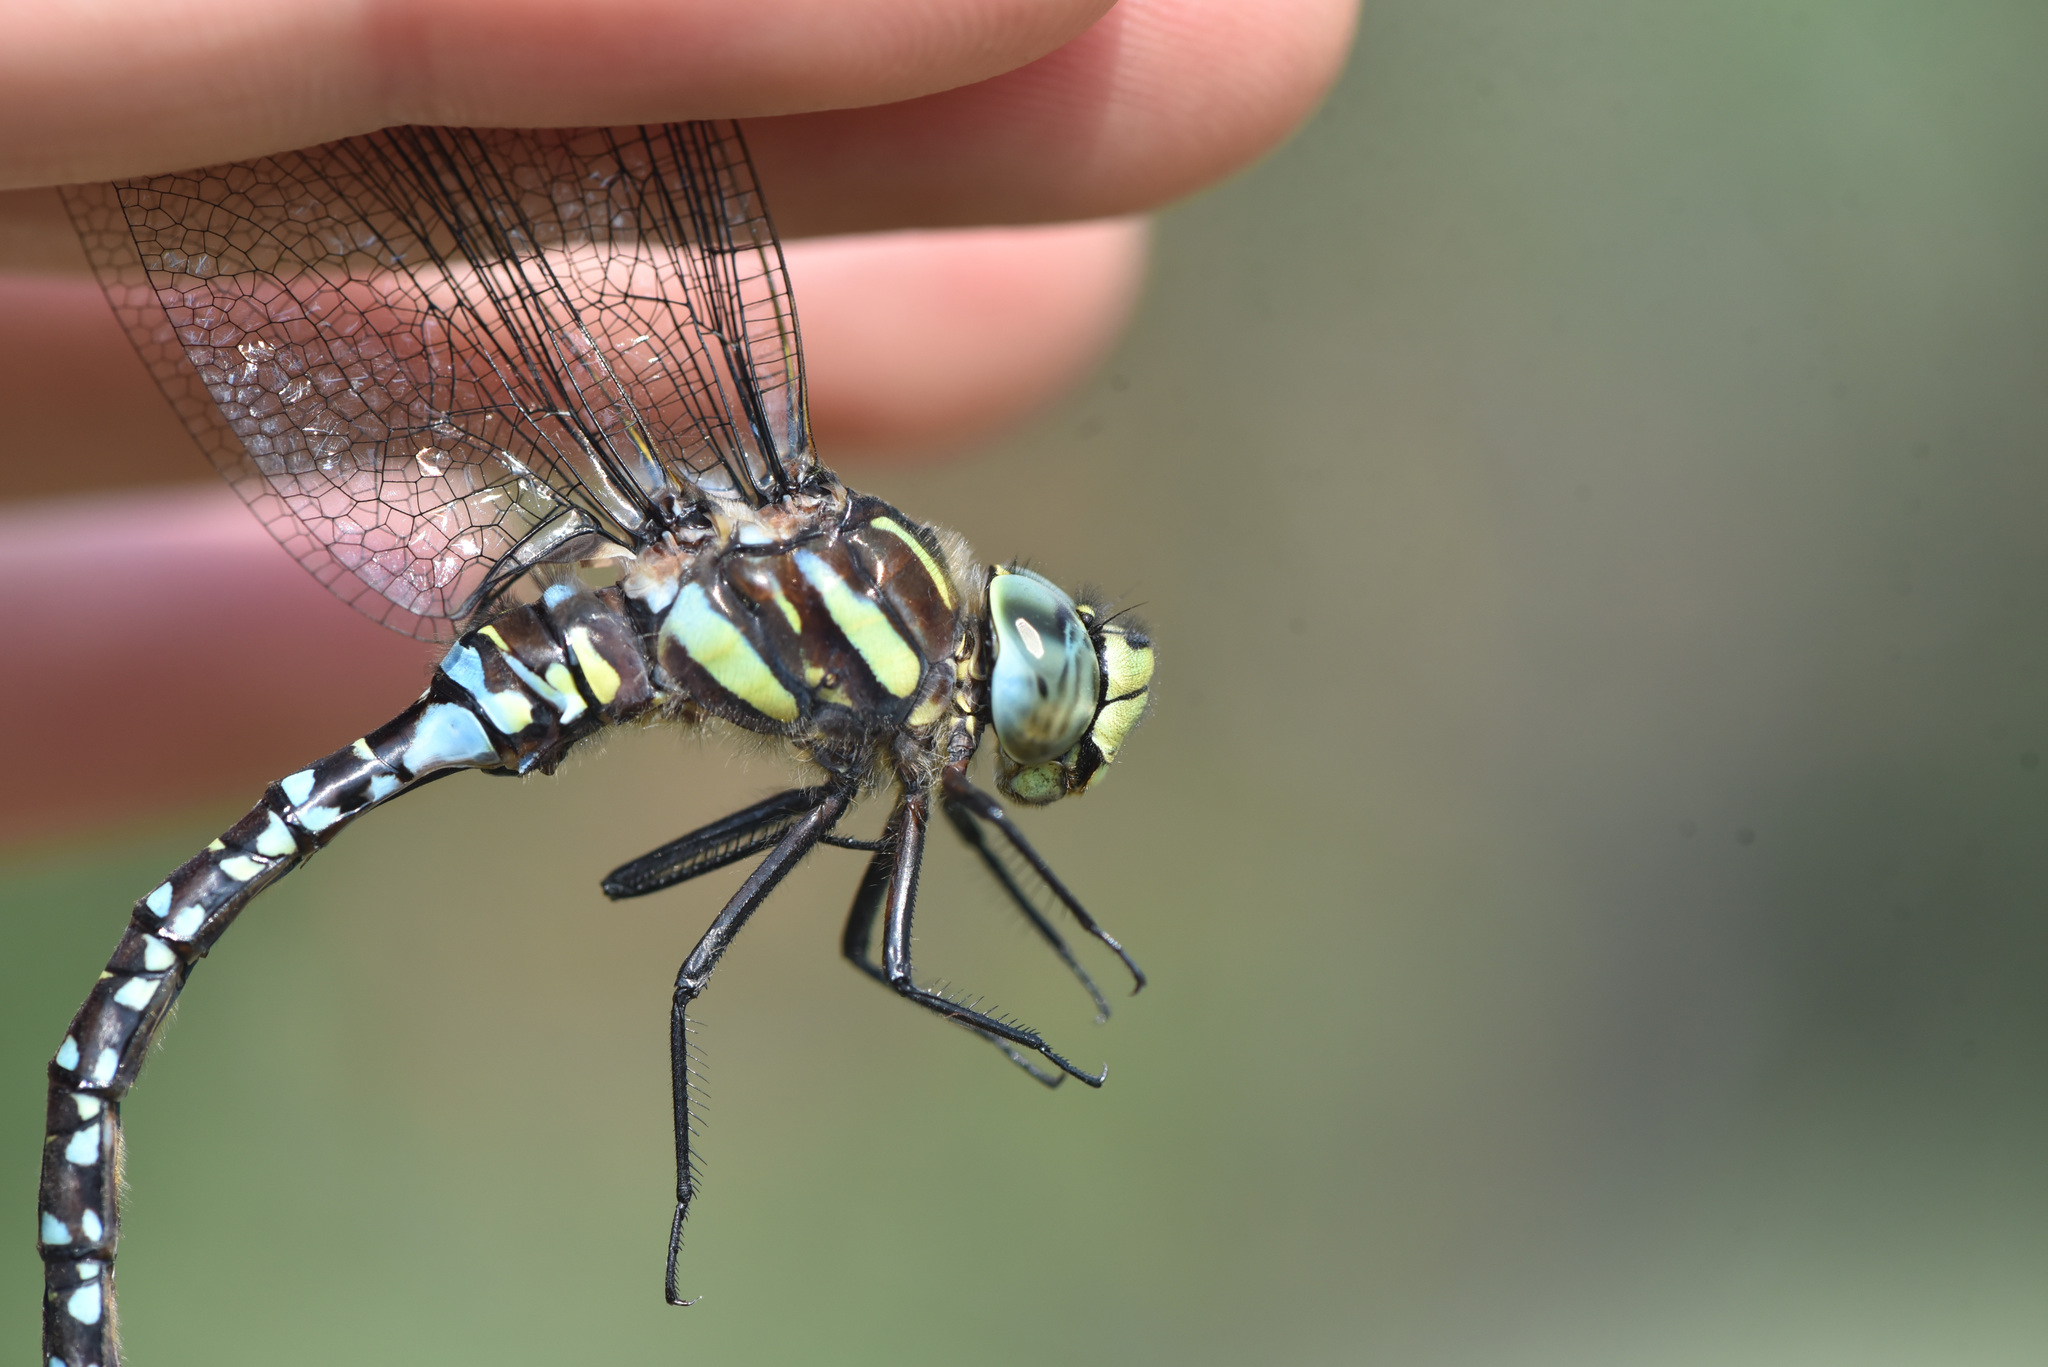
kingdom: Animalia
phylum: Arthropoda
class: Insecta
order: Odonata
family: Aeshnidae
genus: Aeshna
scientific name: Aeshna juncea
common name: Moorland hawker
